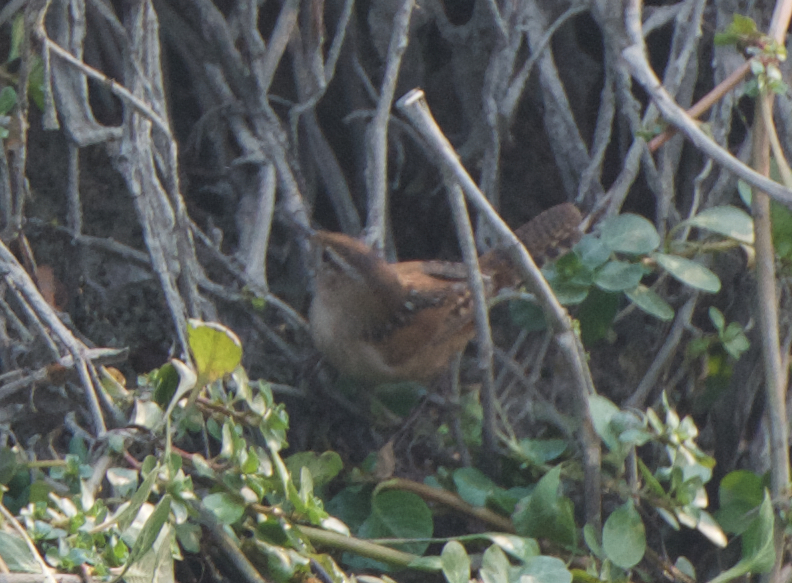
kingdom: Animalia
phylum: Chordata
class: Aves
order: Passeriformes
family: Troglodytidae
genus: Cistothorus
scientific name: Cistothorus palustris
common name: Marsh wren
